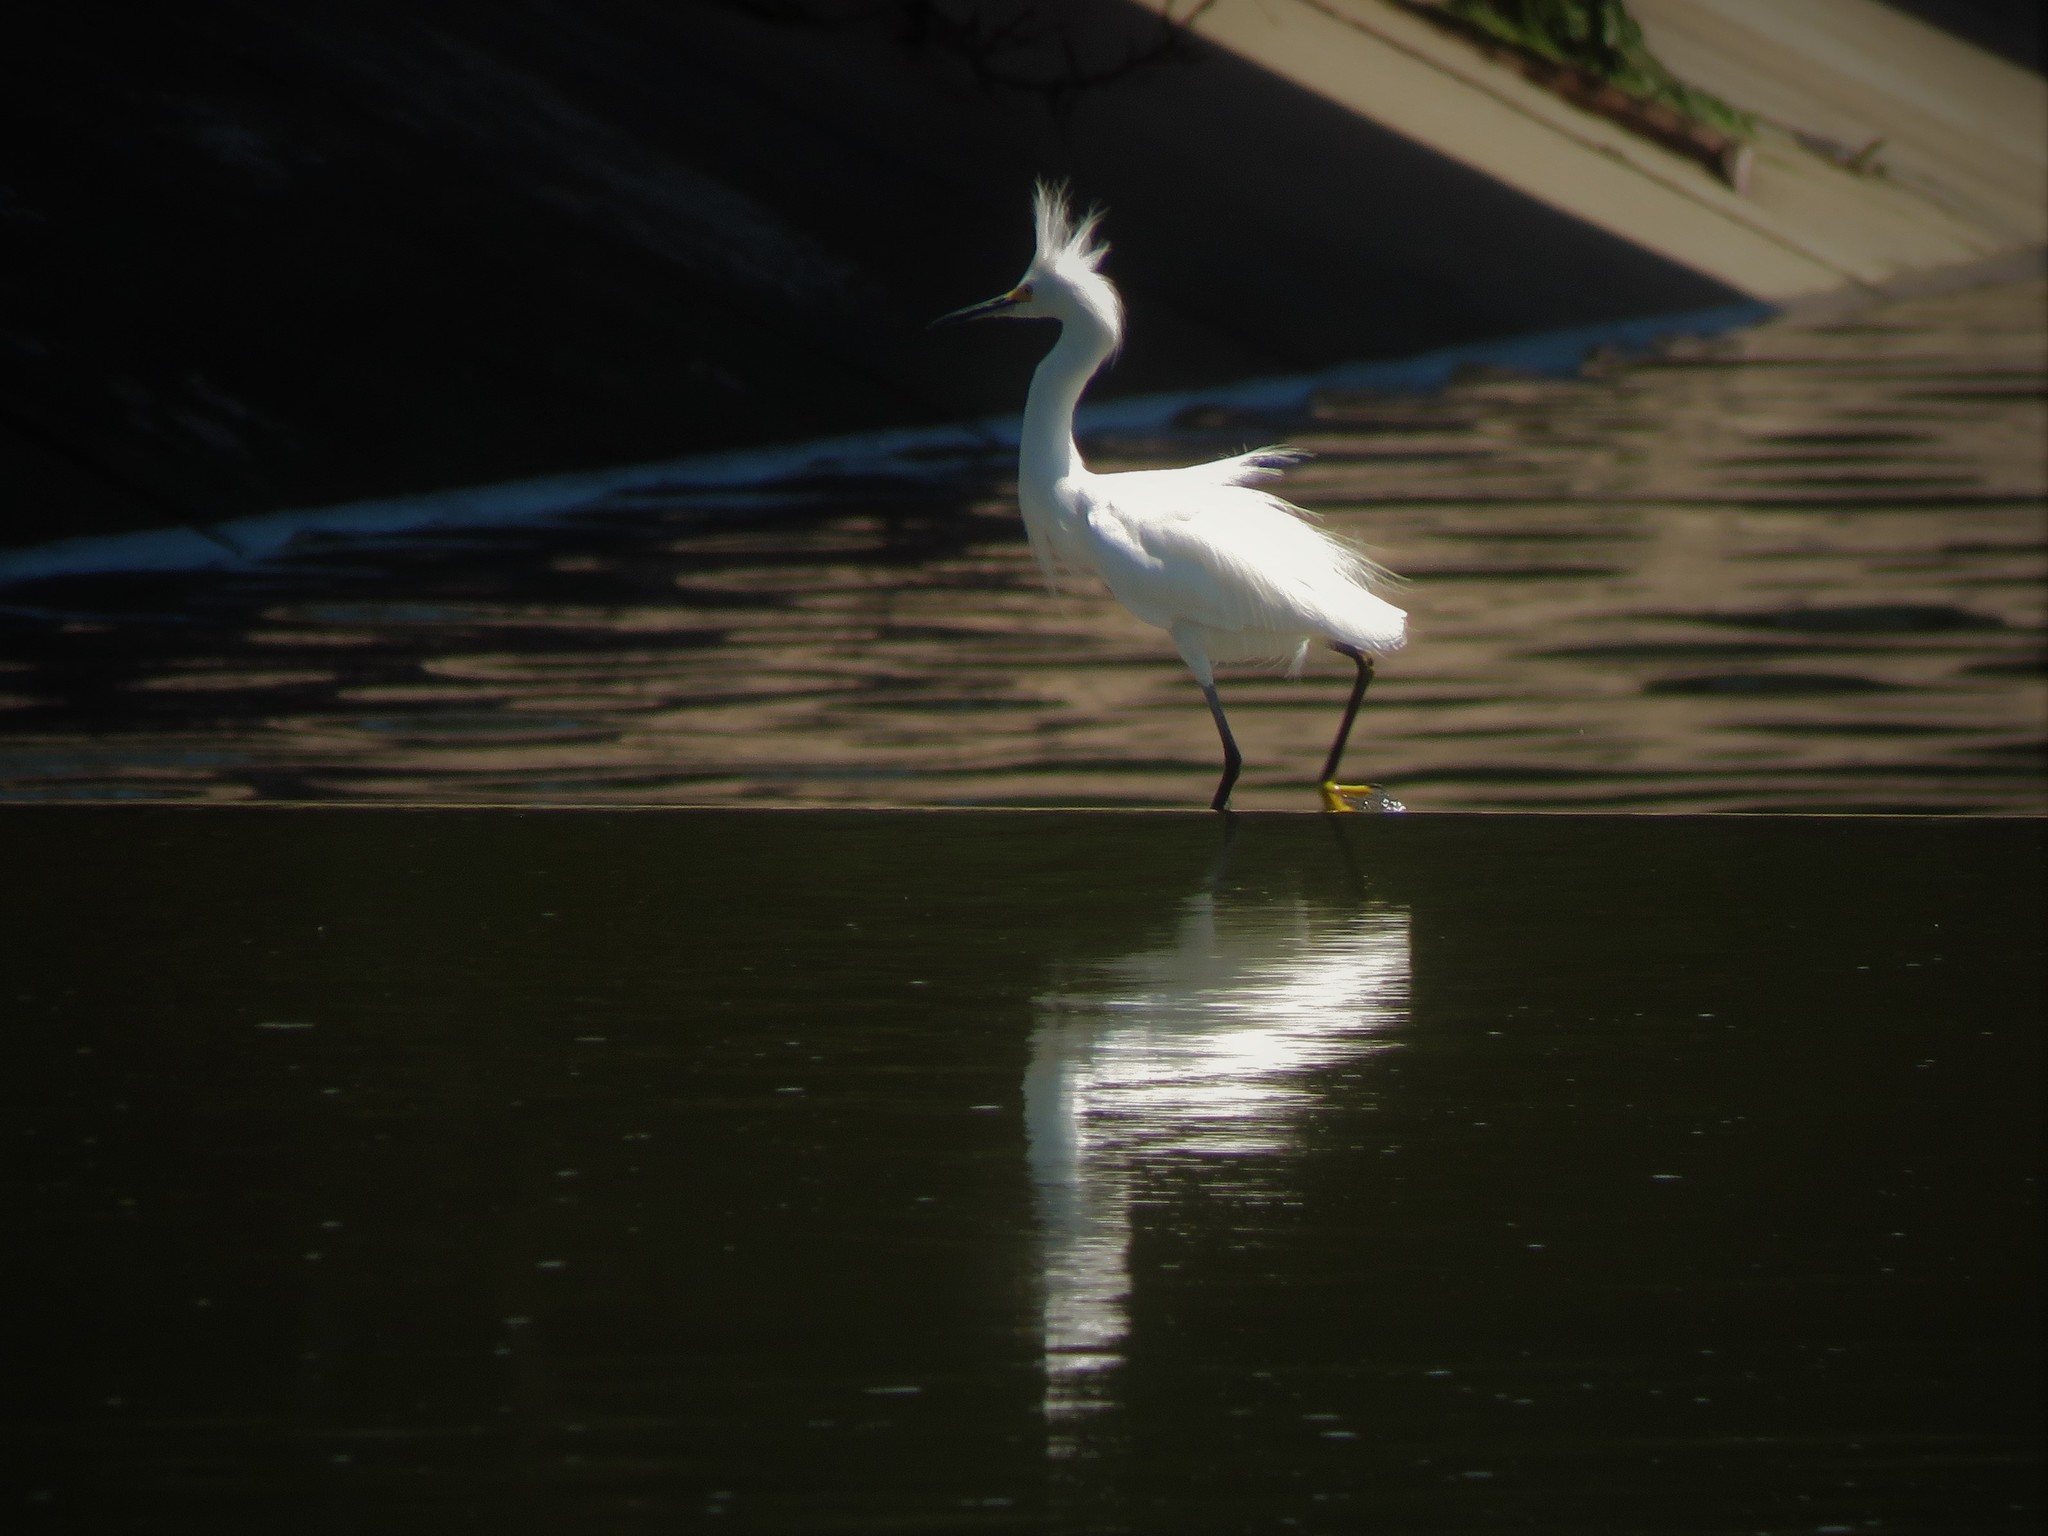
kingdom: Animalia
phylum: Chordata
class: Aves
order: Pelecaniformes
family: Ardeidae
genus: Egretta
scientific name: Egretta thula
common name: Snowy egret
